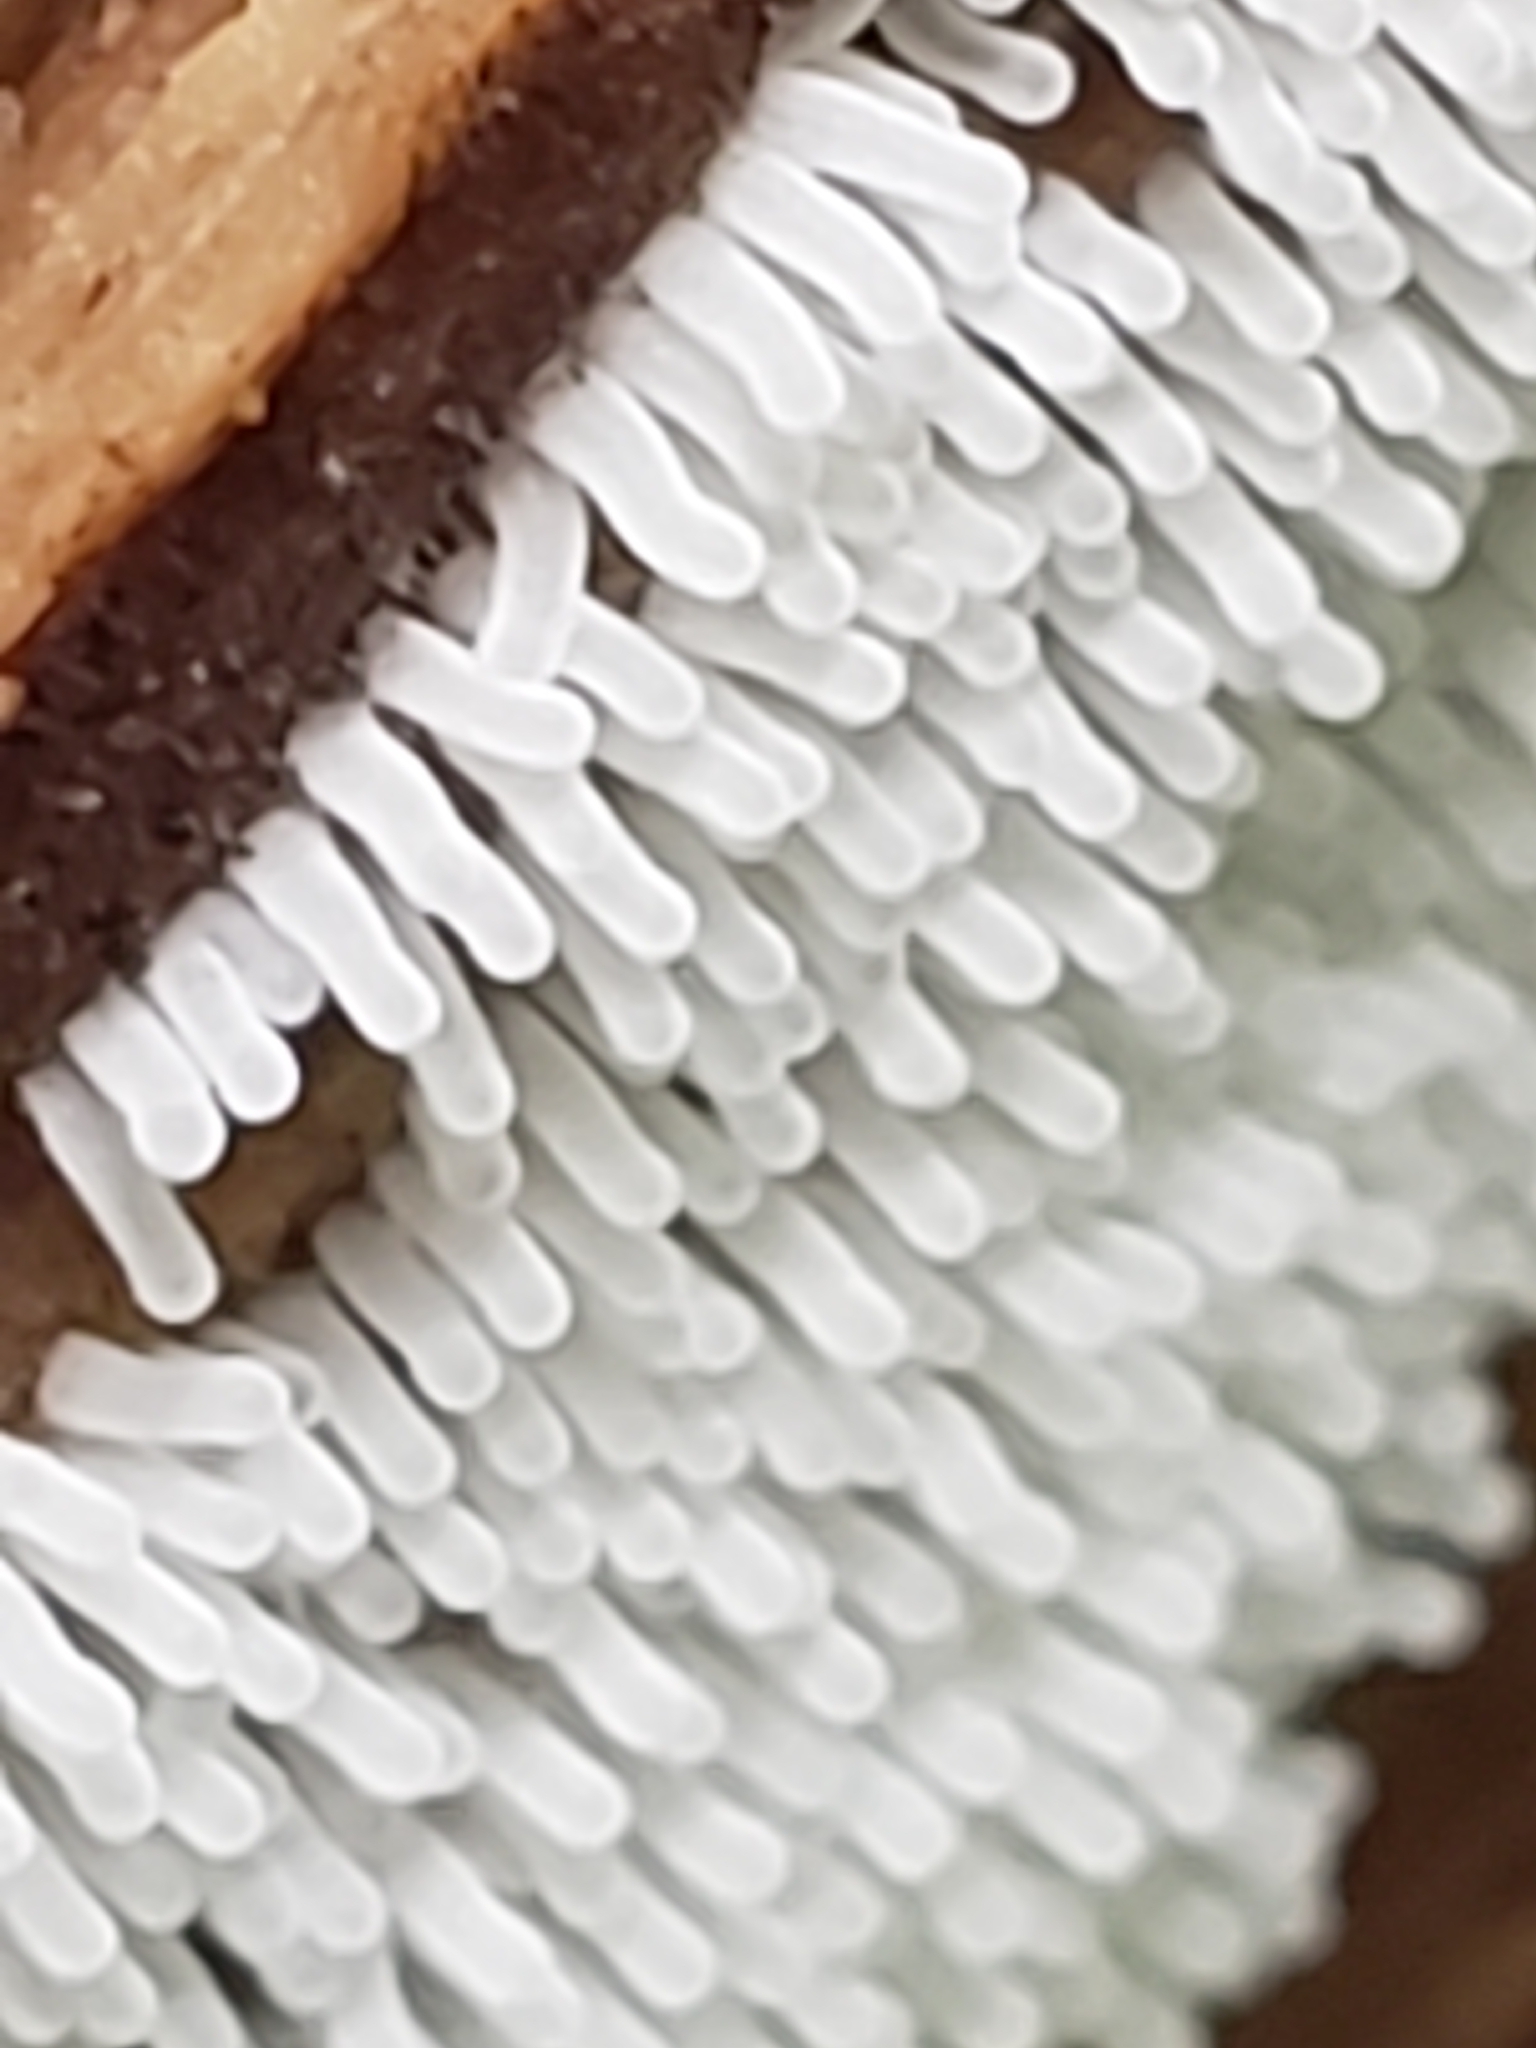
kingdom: Protozoa
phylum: Mycetozoa
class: Protosteliomycetes
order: Ceratiomyxales
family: Ceratiomyxaceae
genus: Ceratiomyxa
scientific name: Ceratiomyxa fruticulosa
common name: Honeycomb coral slime mold
